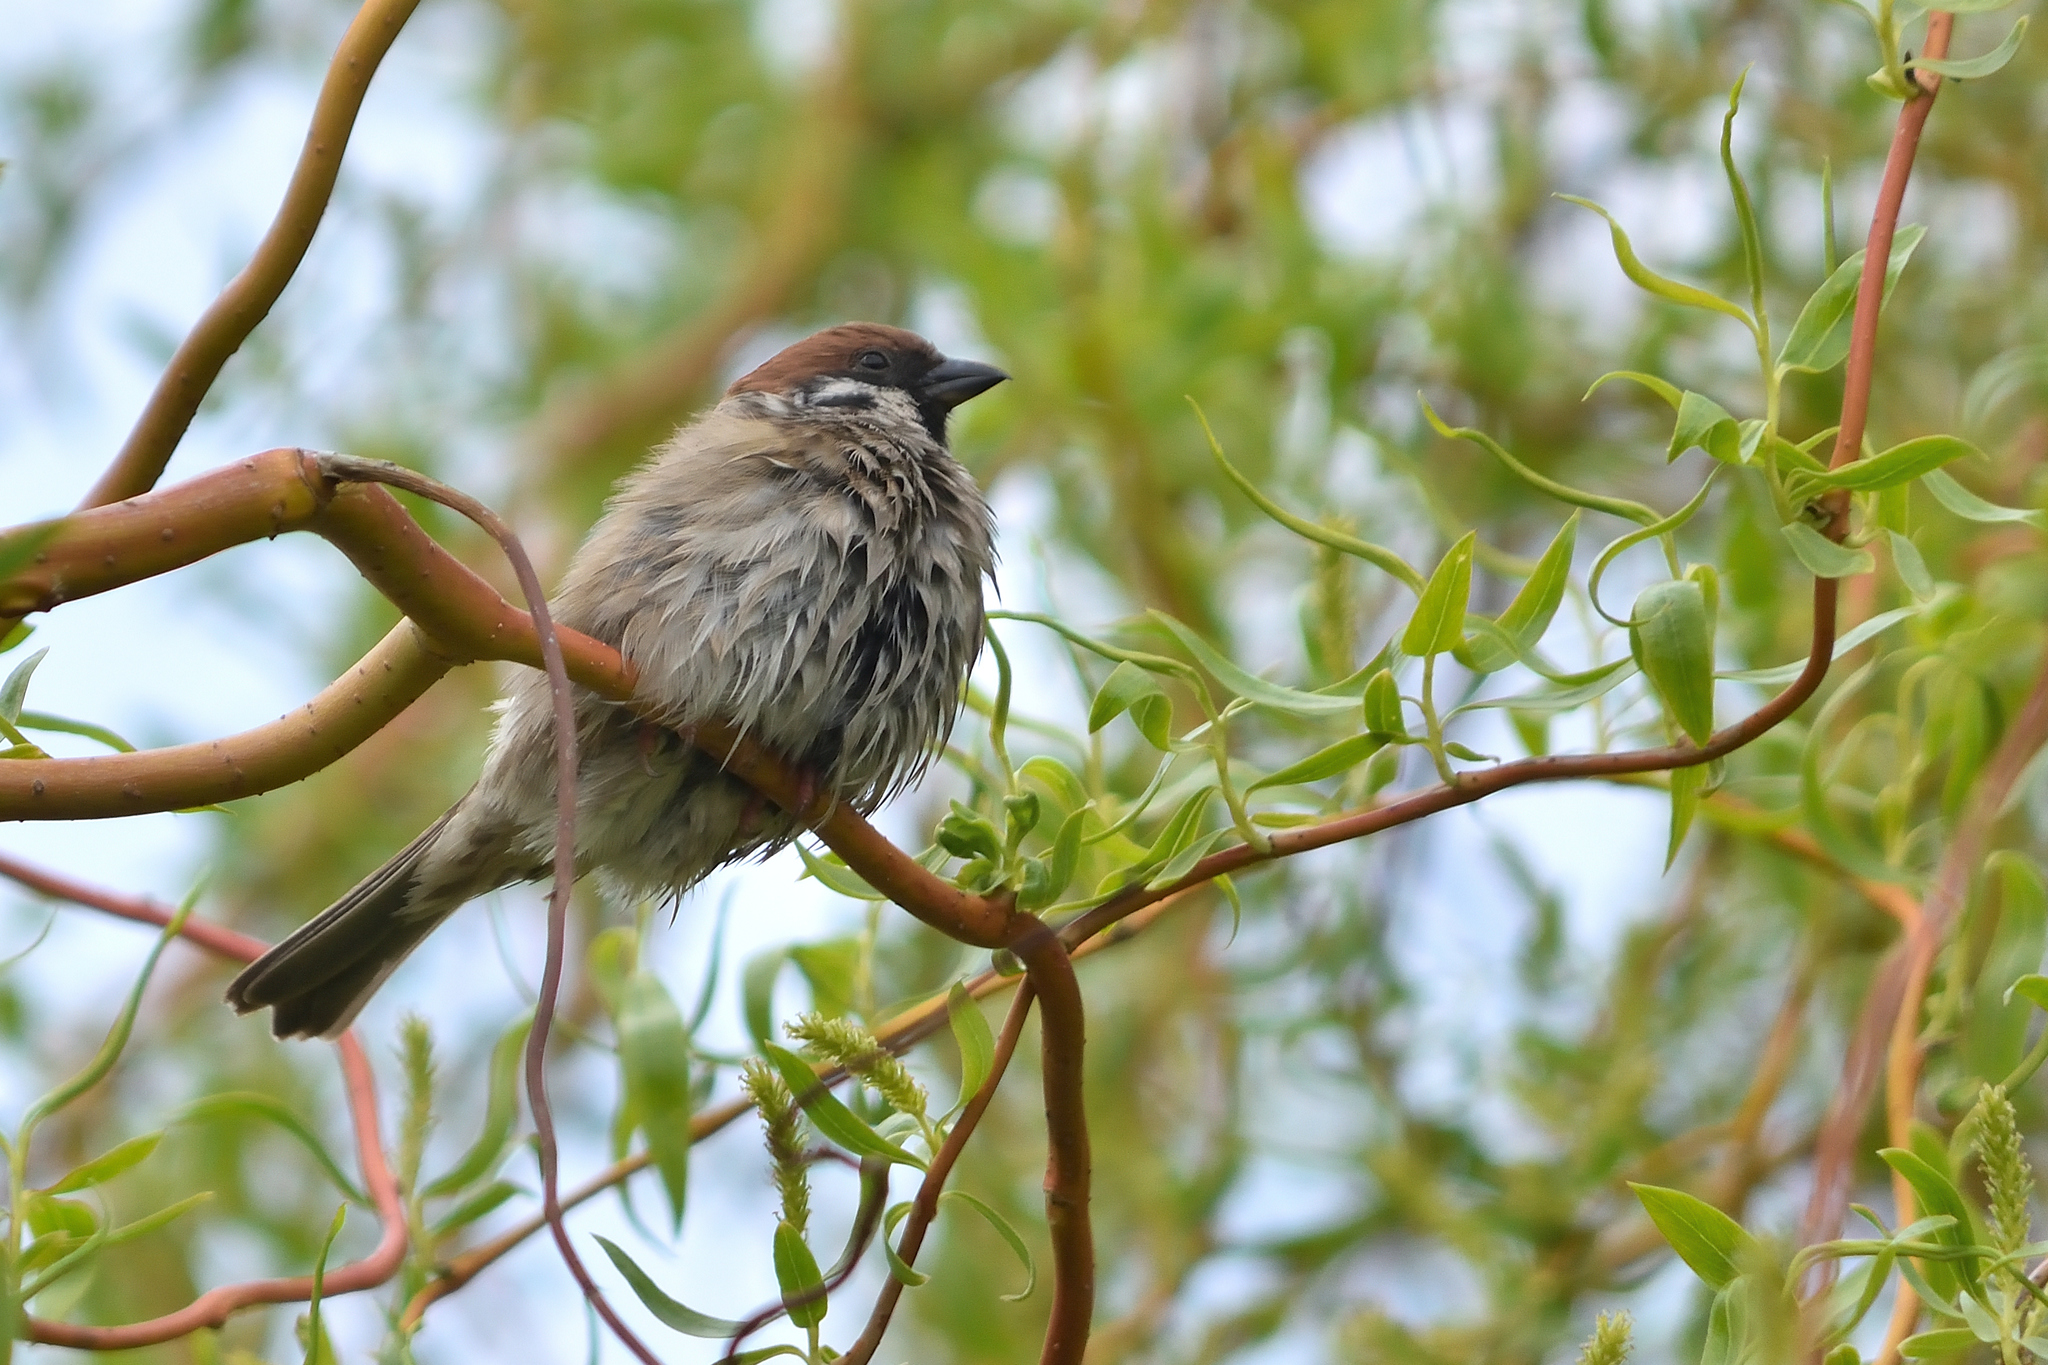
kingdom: Animalia
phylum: Chordata
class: Aves
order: Passeriformes
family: Passeridae
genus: Passer
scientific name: Passer montanus
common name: Eurasian tree sparrow
